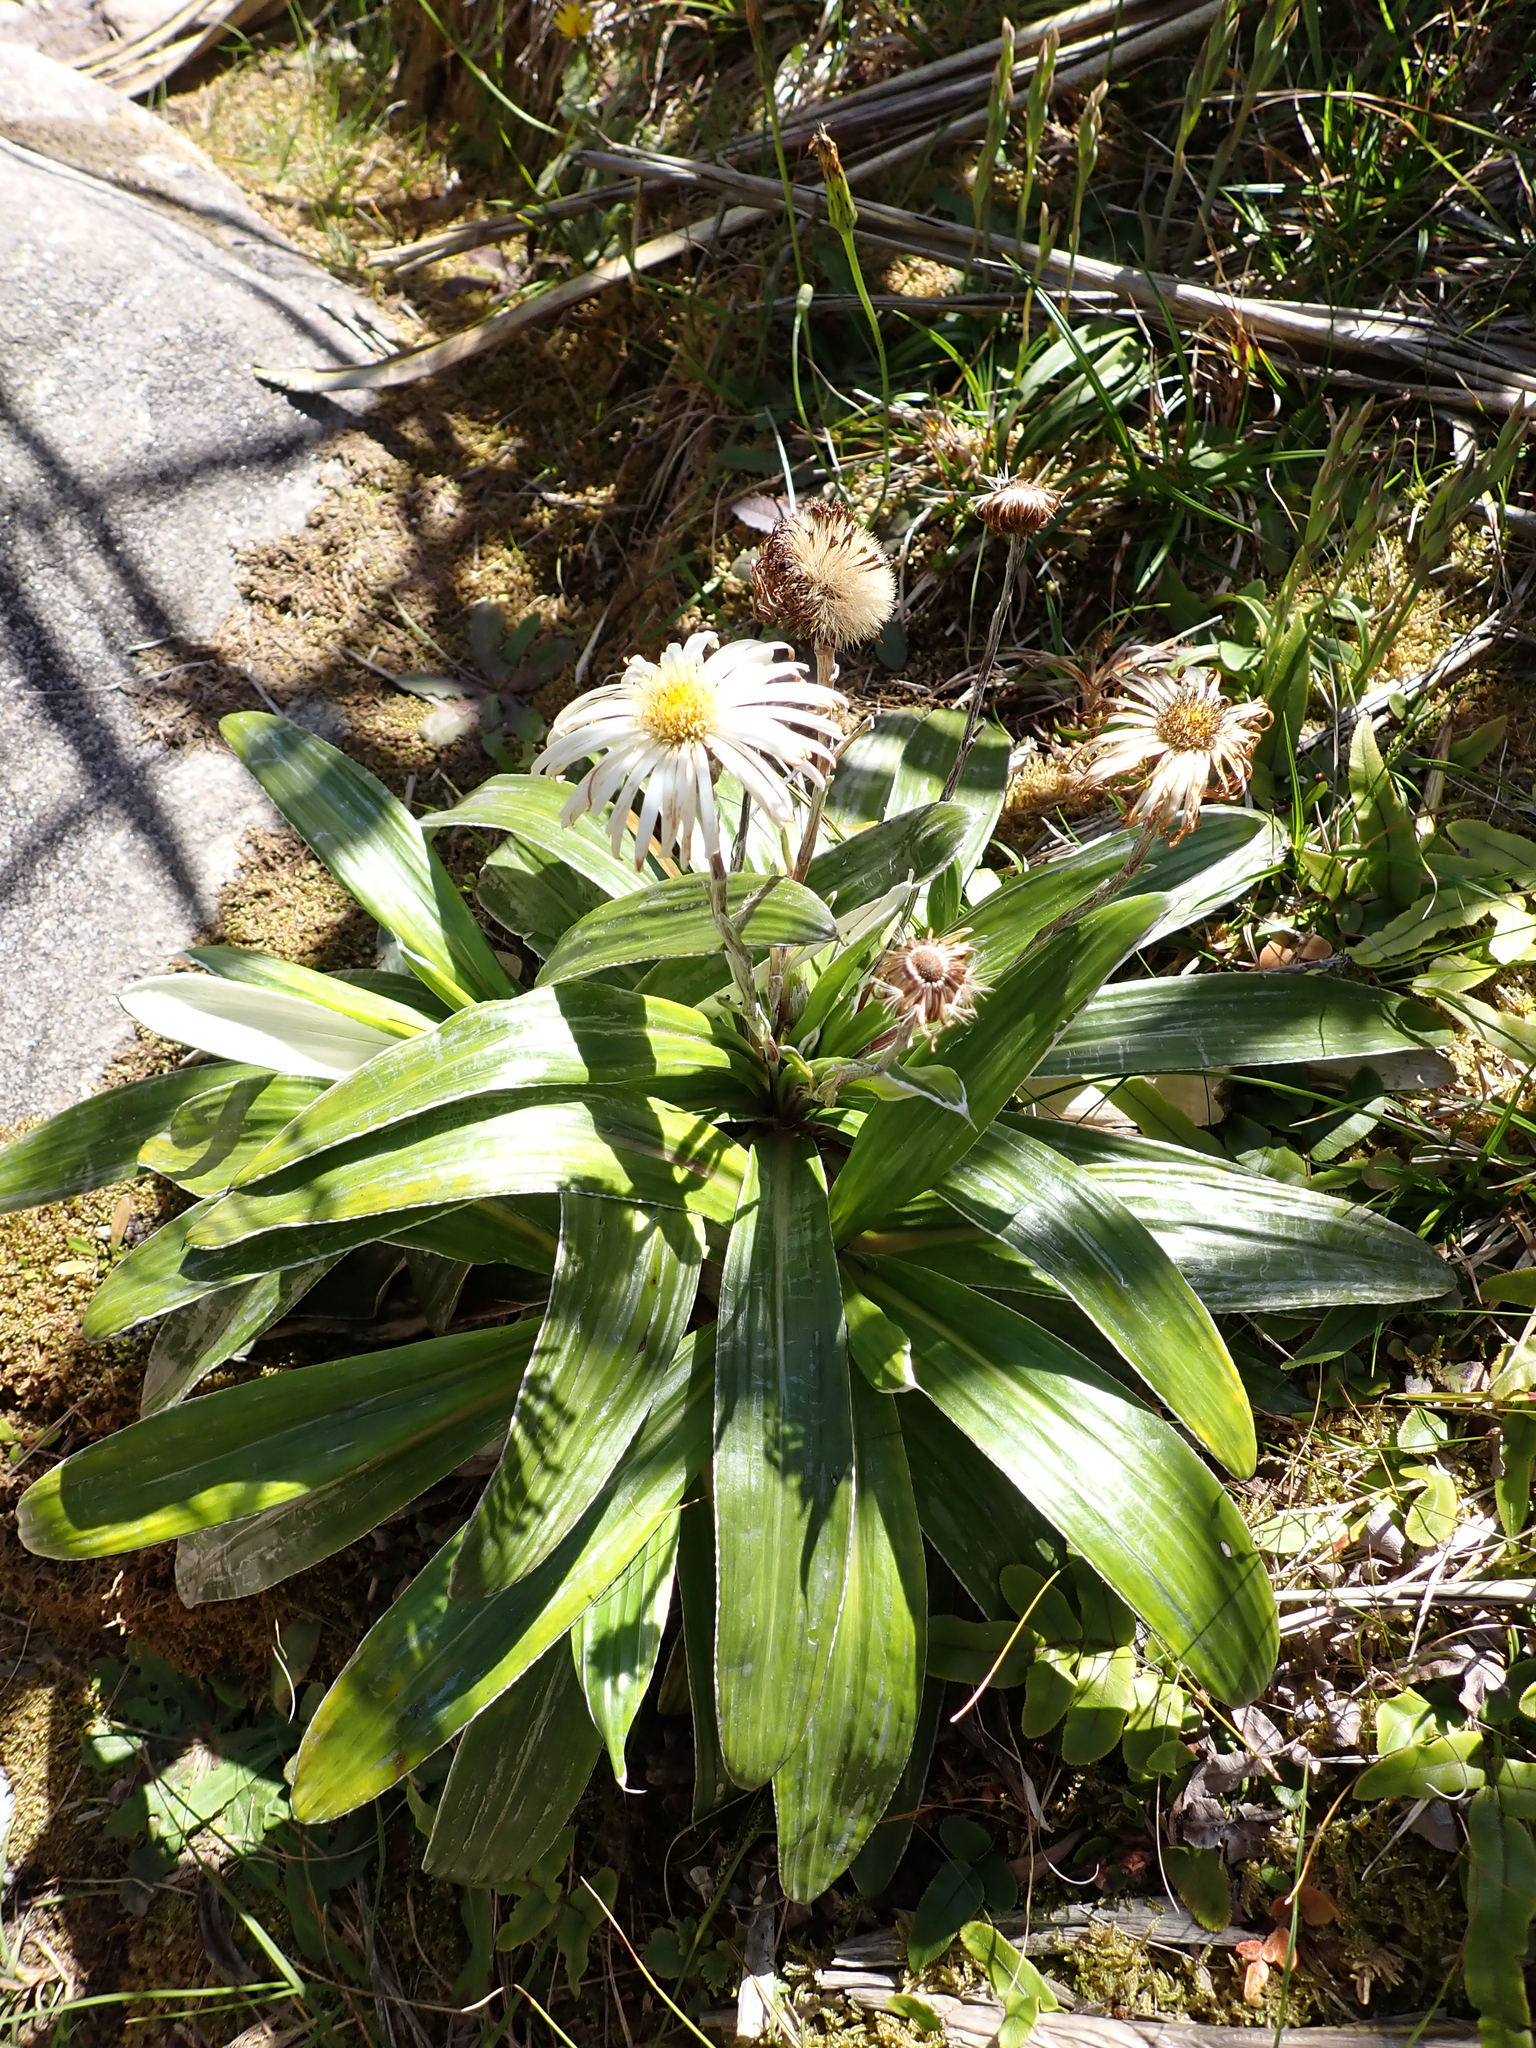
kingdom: Plantae
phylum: Tracheophyta
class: Magnoliopsida
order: Asterales
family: Asteraceae
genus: Celmisia
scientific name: Celmisia semicordata
